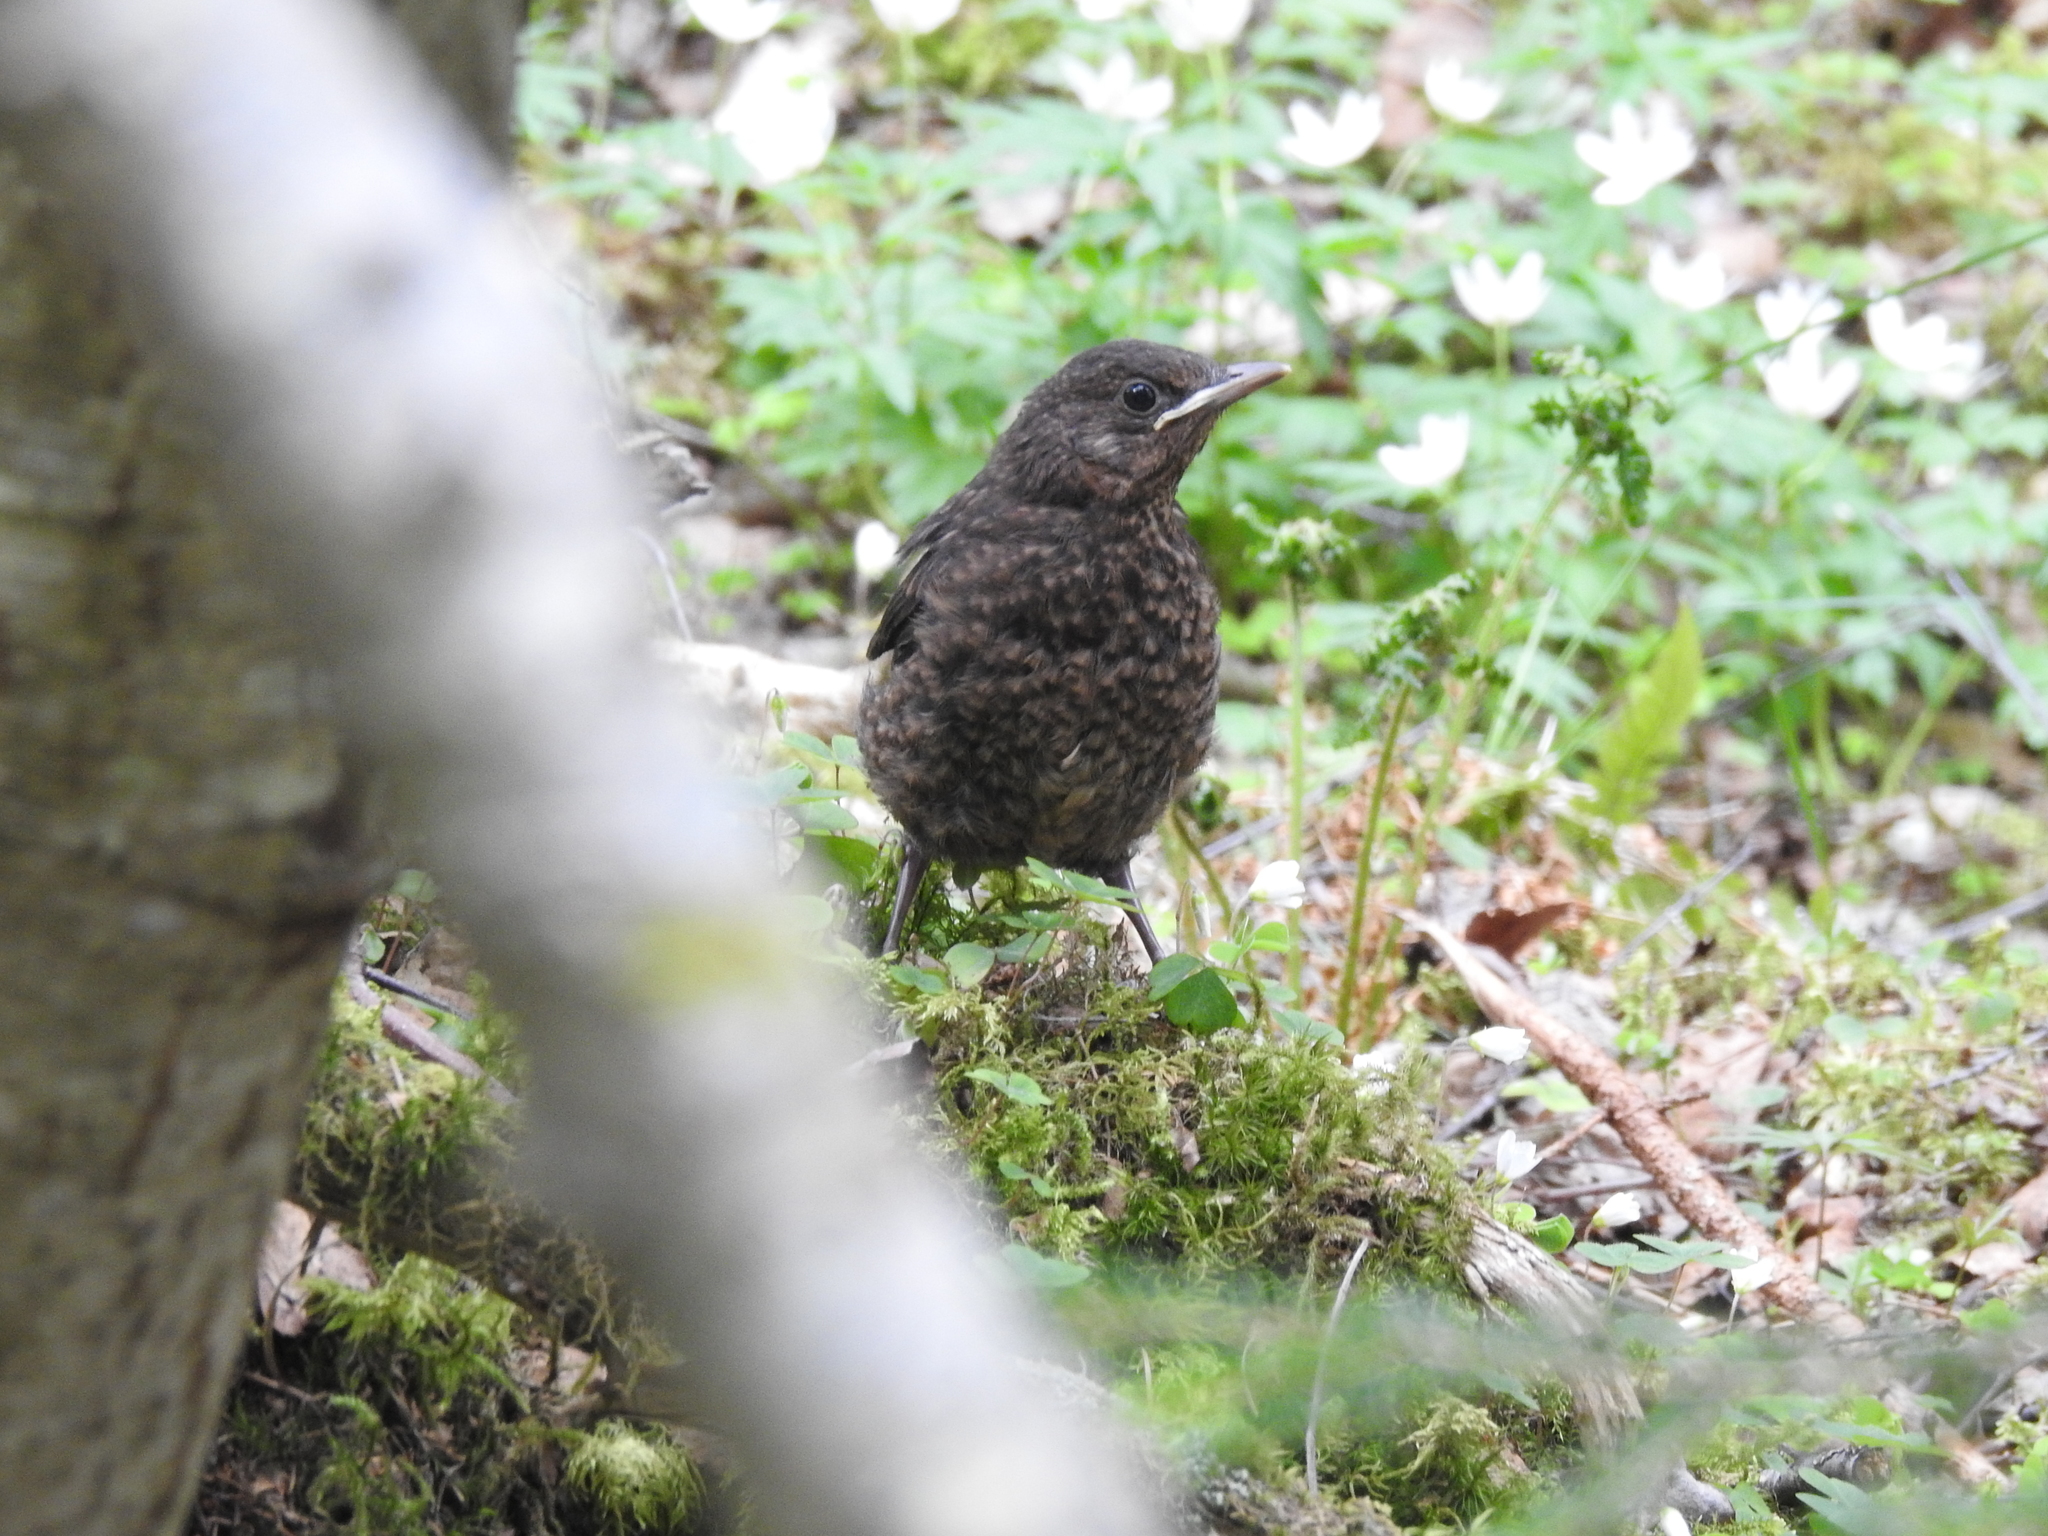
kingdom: Animalia
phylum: Chordata
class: Aves
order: Passeriformes
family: Turdidae
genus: Turdus
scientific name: Turdus merula
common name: Common blackbird
